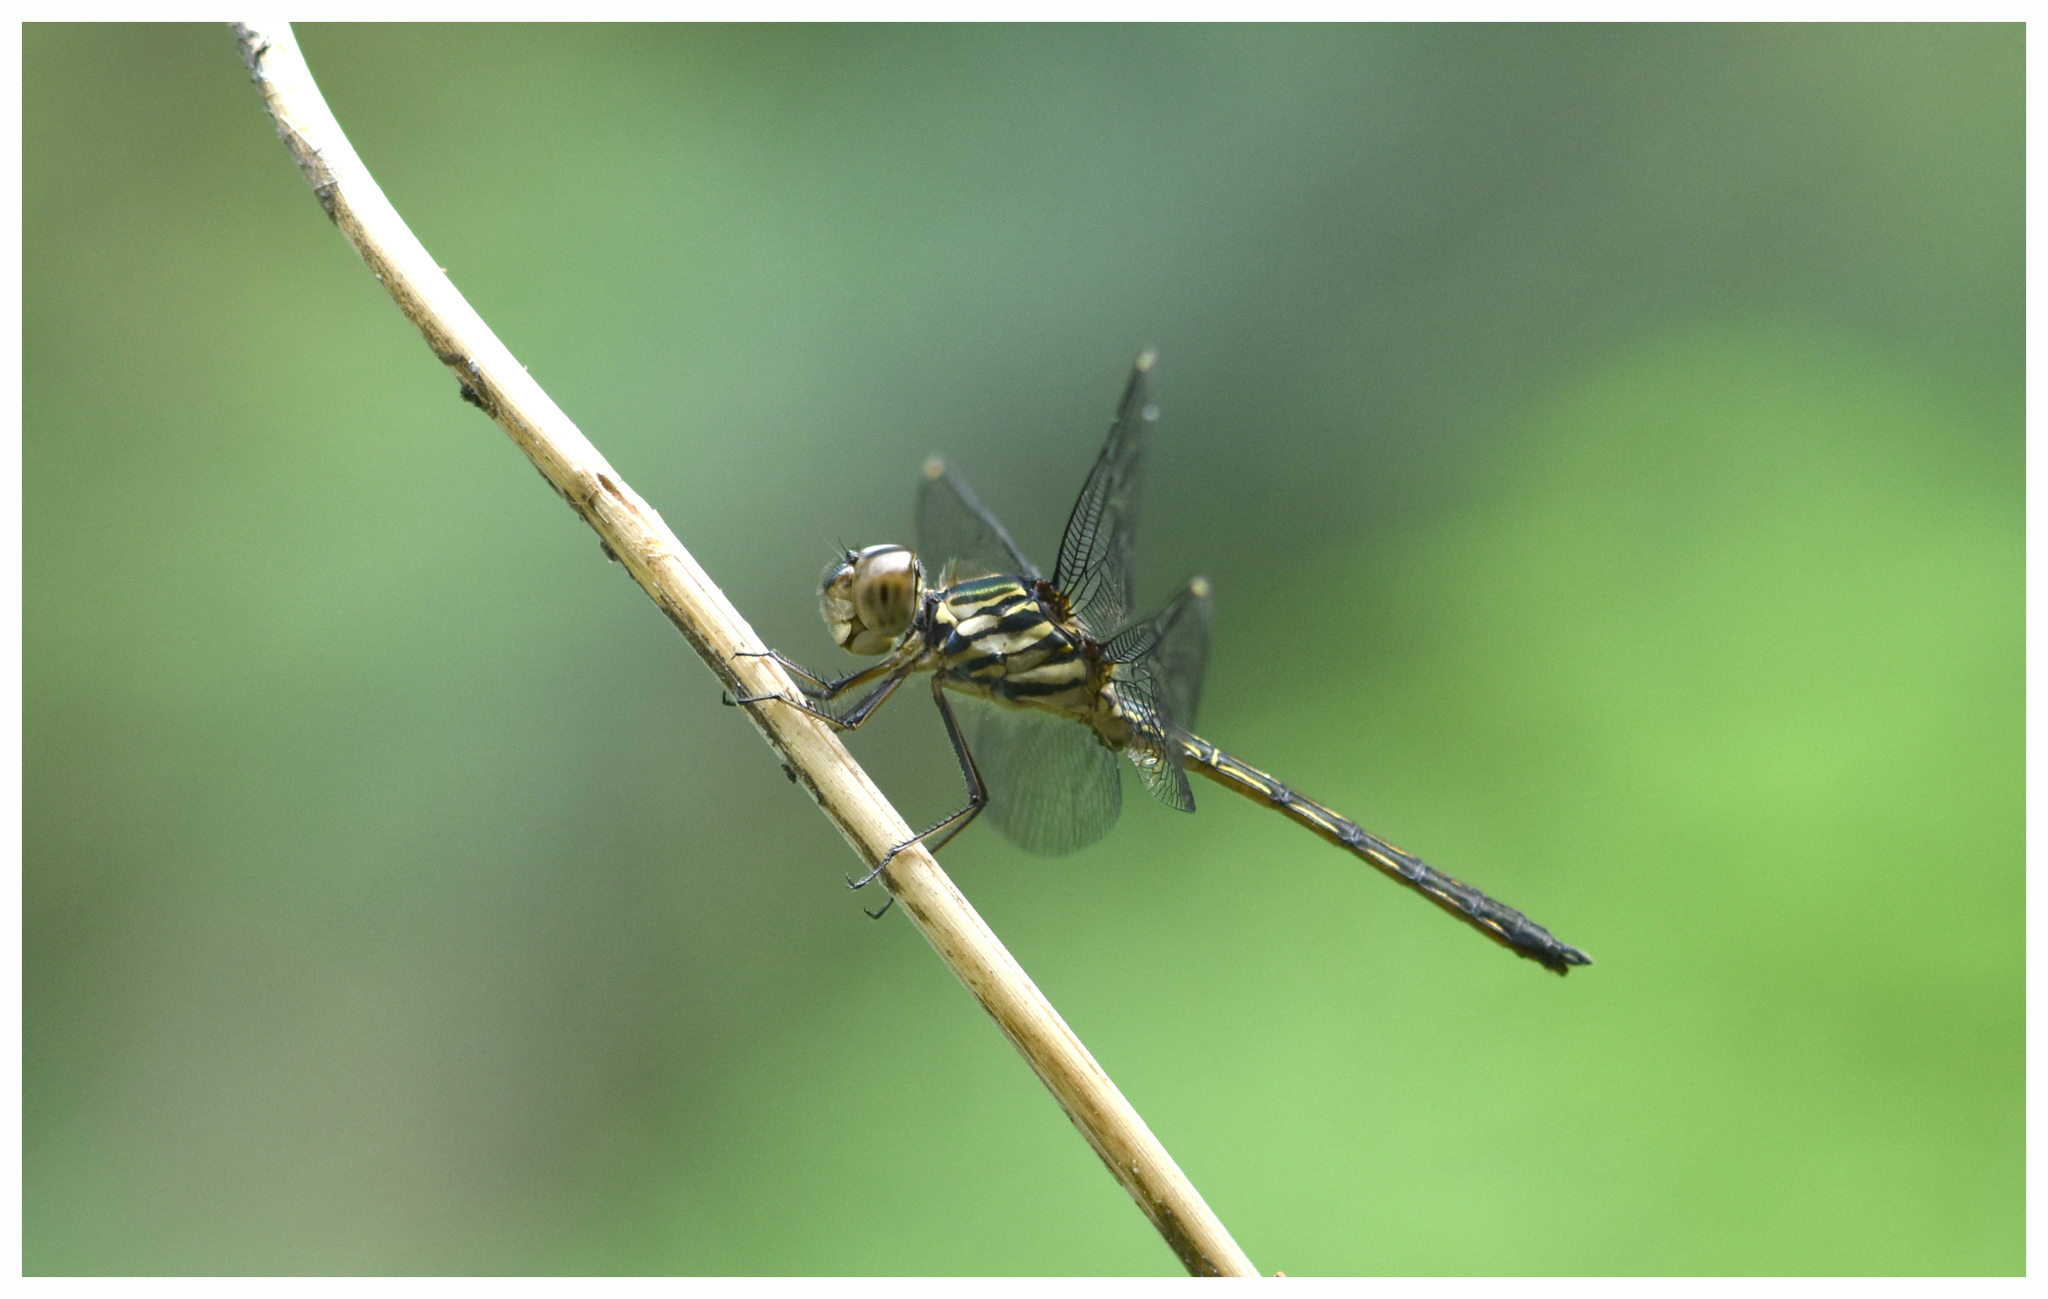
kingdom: Animalia
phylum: Arthropoda
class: Insecta
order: Odonata
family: Libellulidae
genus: Cratilla
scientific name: Cratilla lineata
